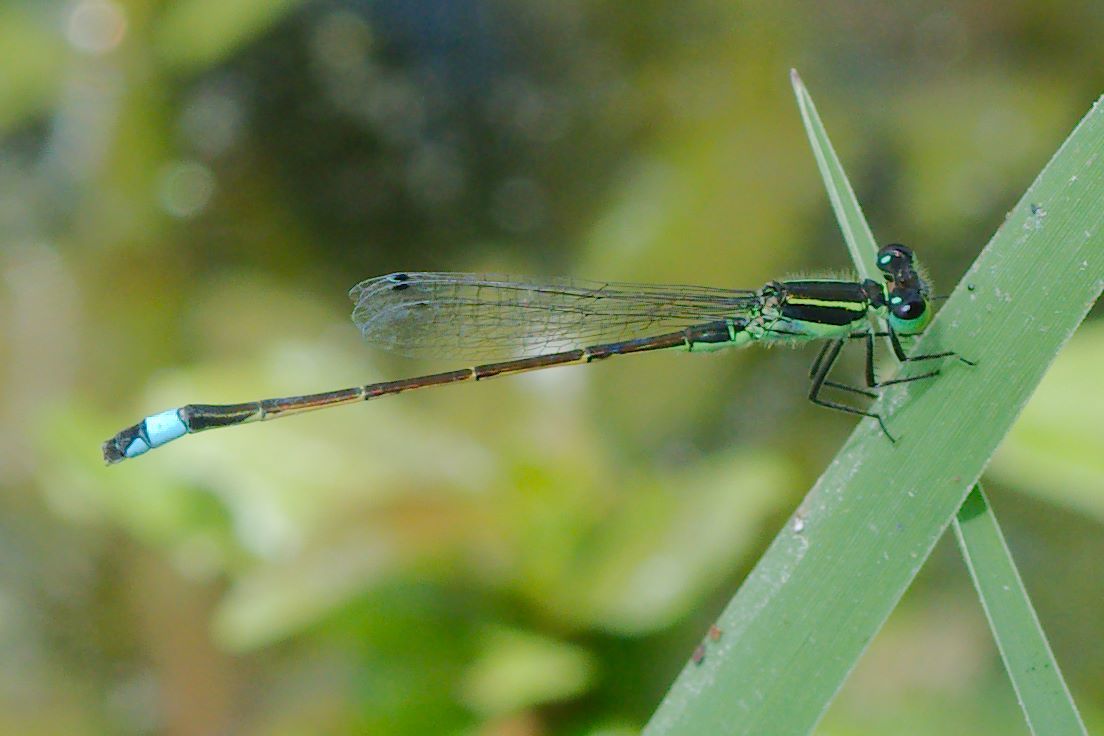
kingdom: Animalia
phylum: Arthropoda
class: Insecta
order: Odonata
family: Coenagrionidae
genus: Ischnura
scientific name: Ischnura ramburii
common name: Rambur's forktail
